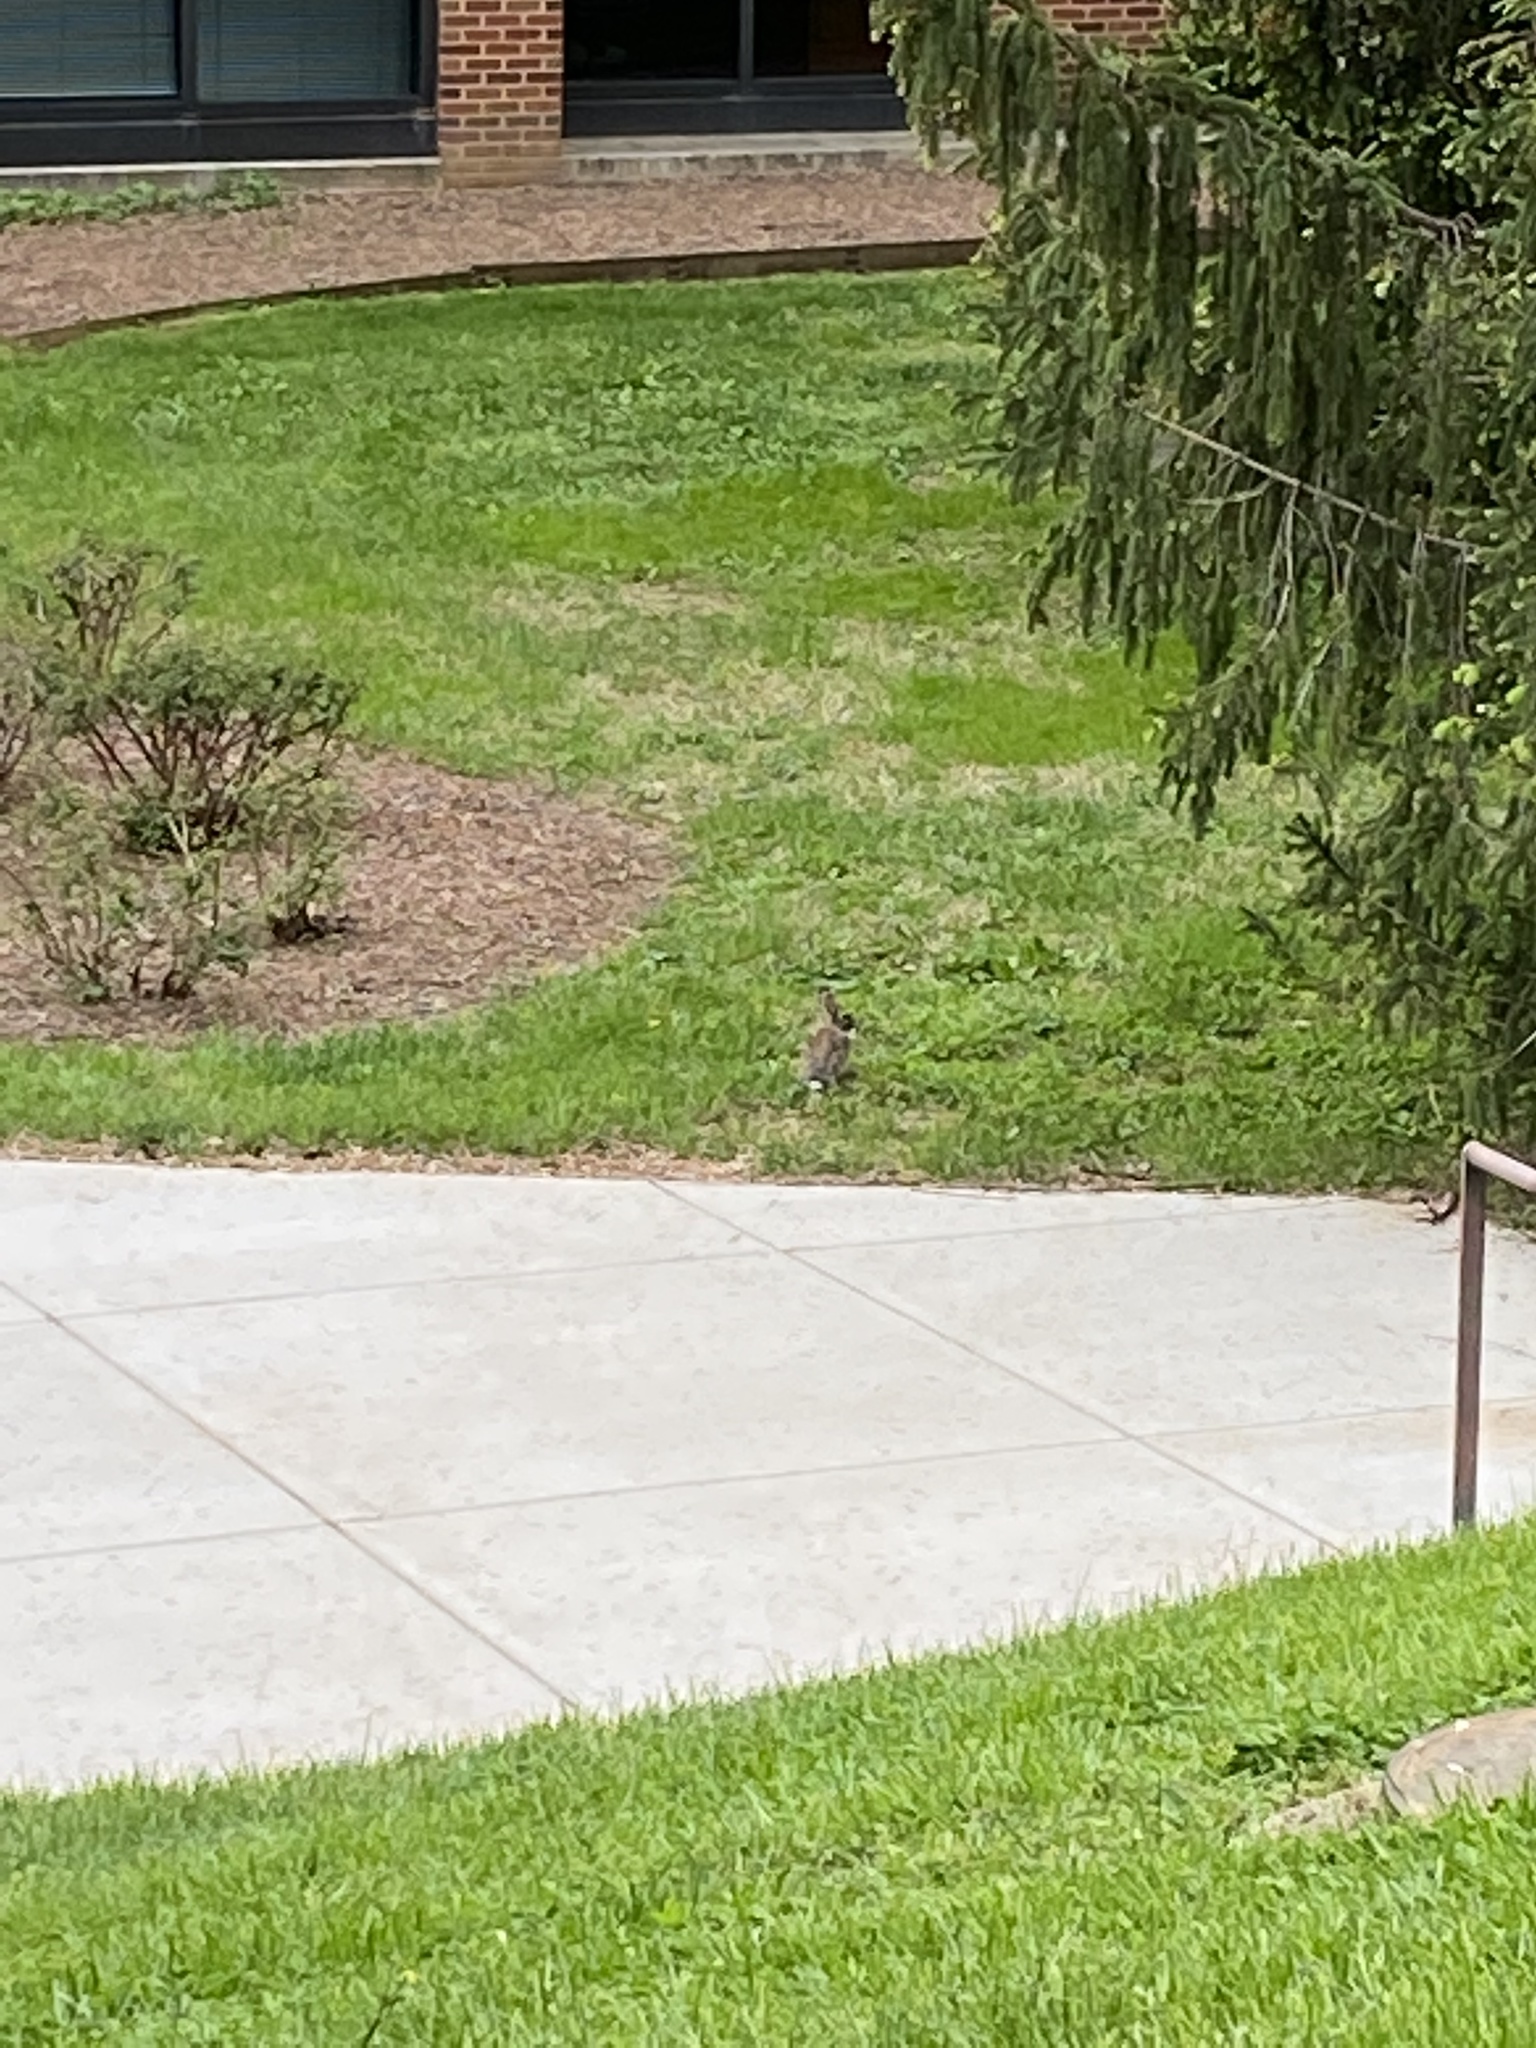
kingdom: Animalia
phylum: Chordata
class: Mammalia
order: Lagomorpha
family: Leporidae
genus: Sylvilagus
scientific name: Sylvilagus floridanus
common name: Eastern cottontail
